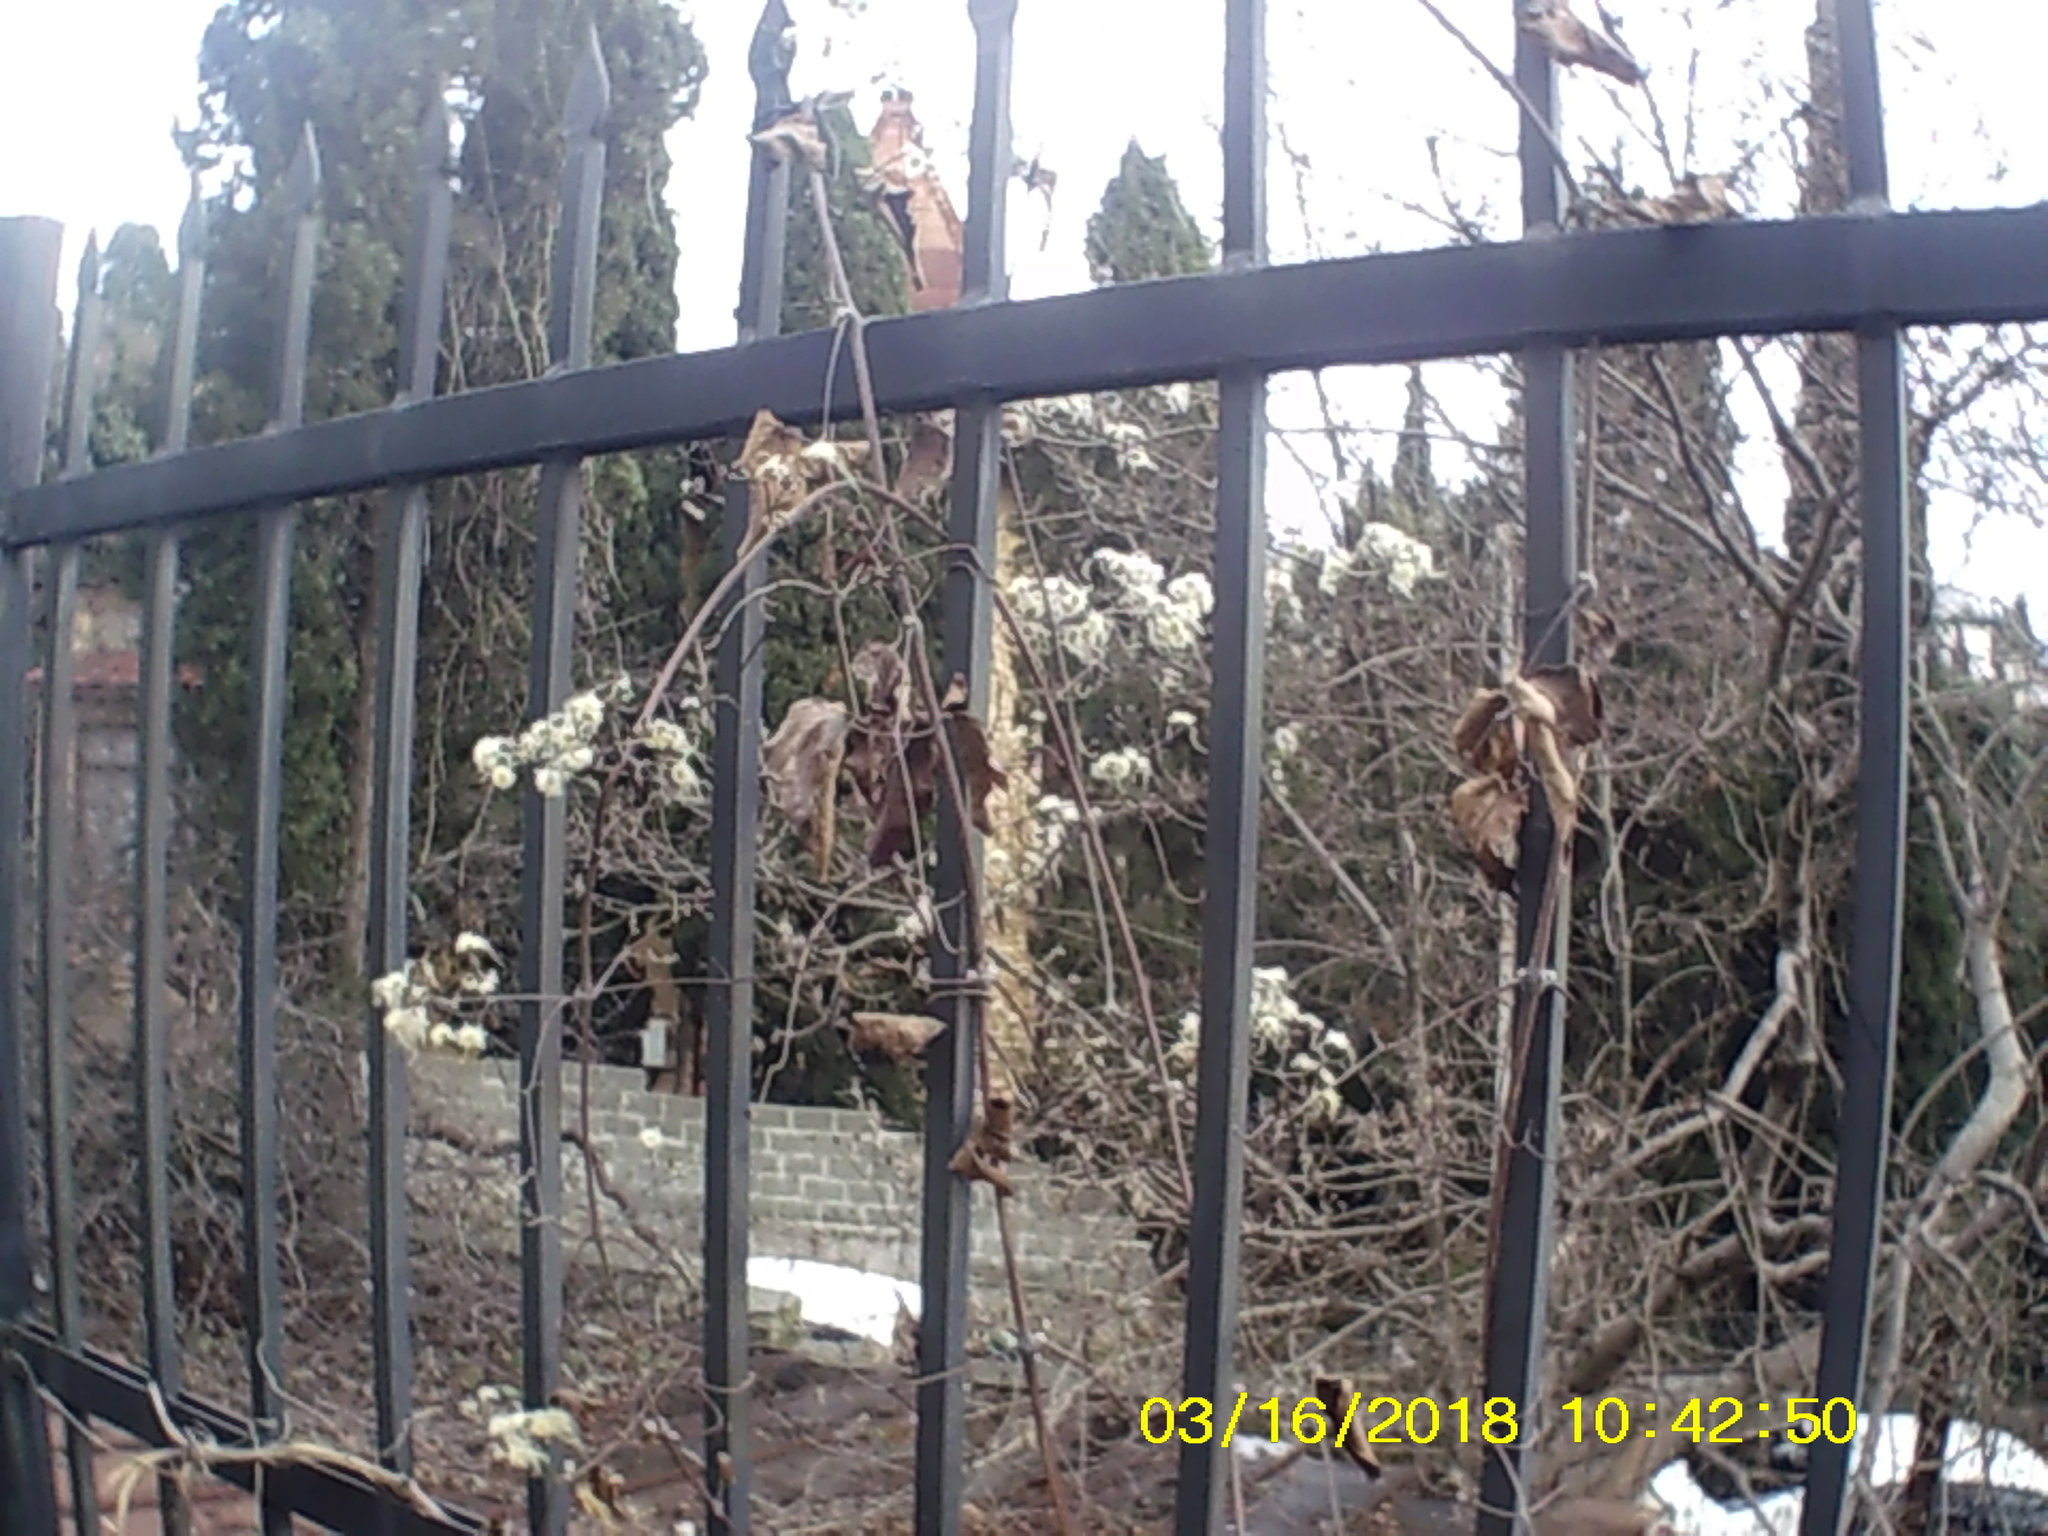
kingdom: Plantae
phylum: Tracheophyta
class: Magnoliopsida
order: Ranunculales
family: Ranunculaceae
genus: Clematis
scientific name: Clematis vitalba
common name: Evergreen clematis
